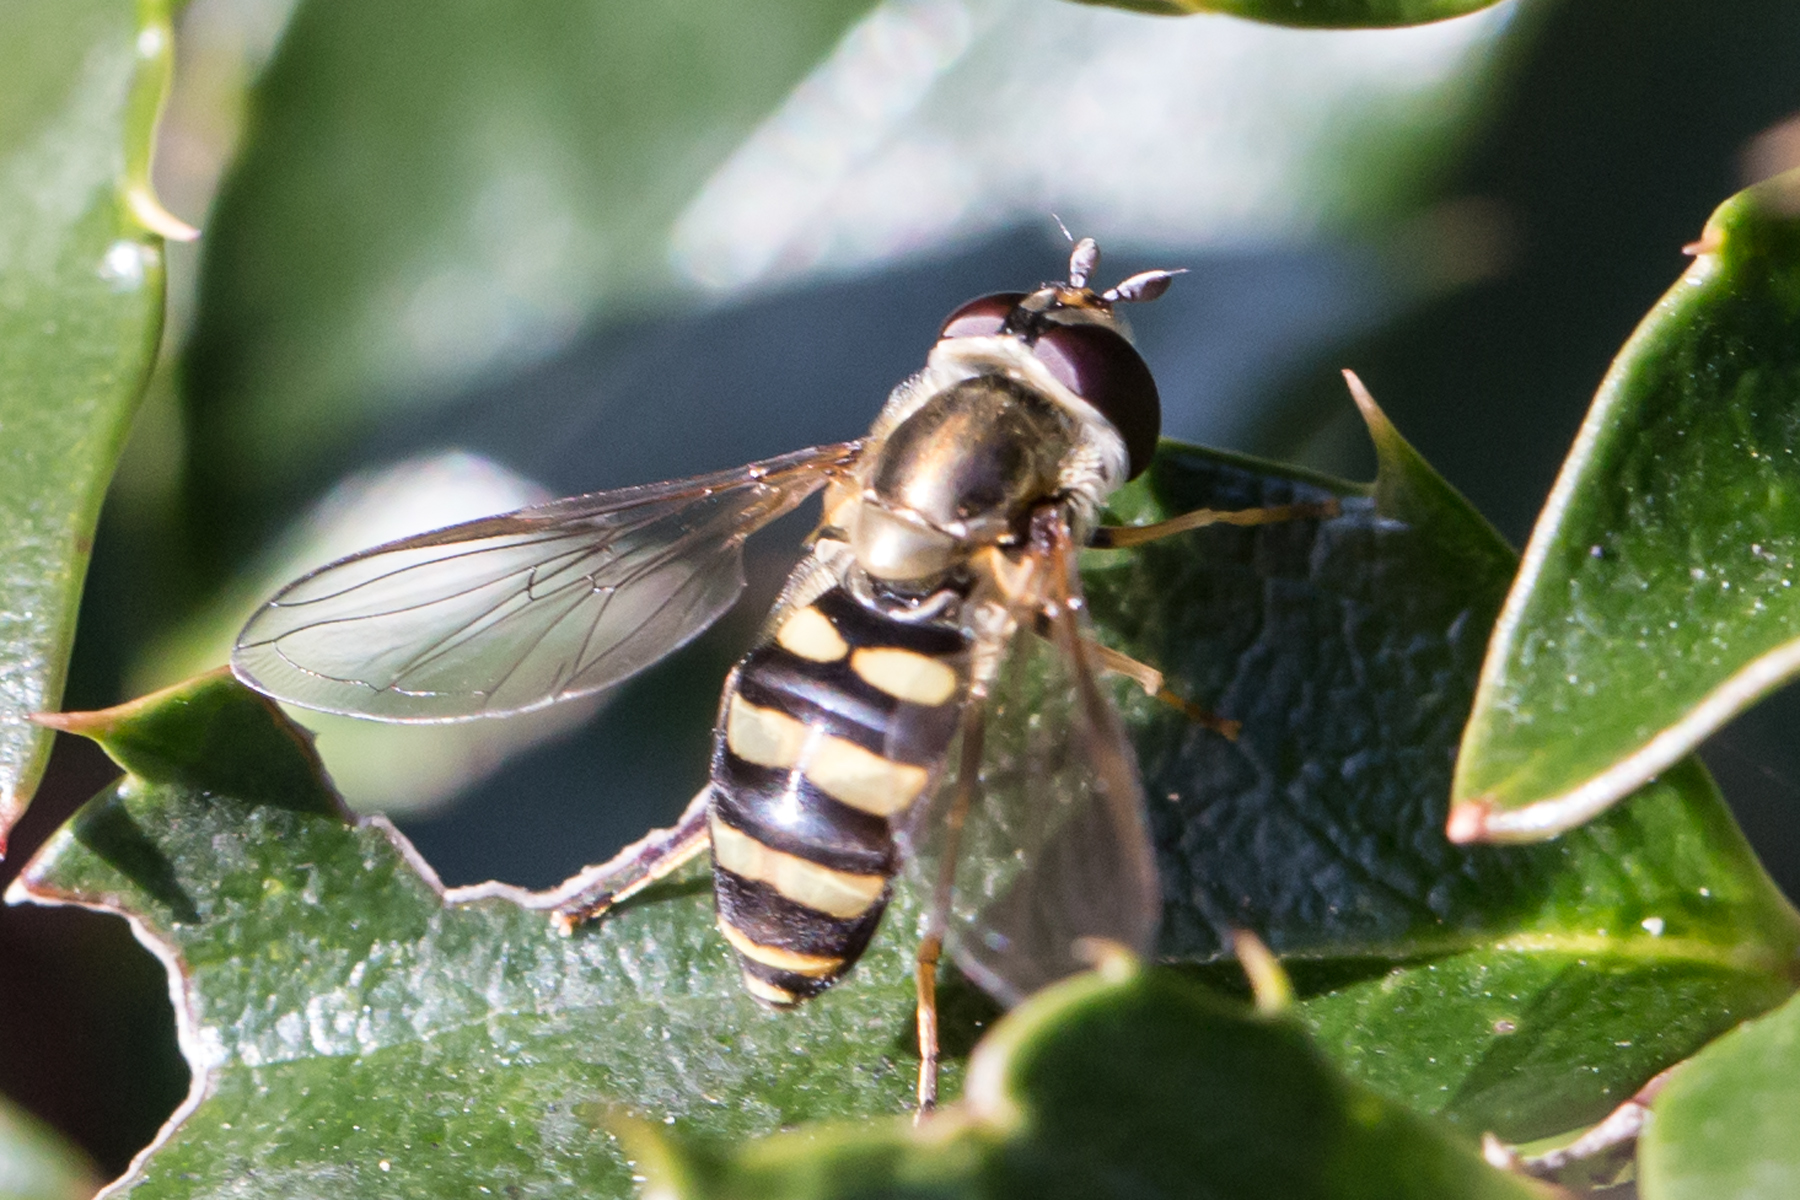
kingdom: Animalia
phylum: Arthropoda
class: Insecta
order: Diptera
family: Syrphidae
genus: Eupeodes
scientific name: Eupeodes
